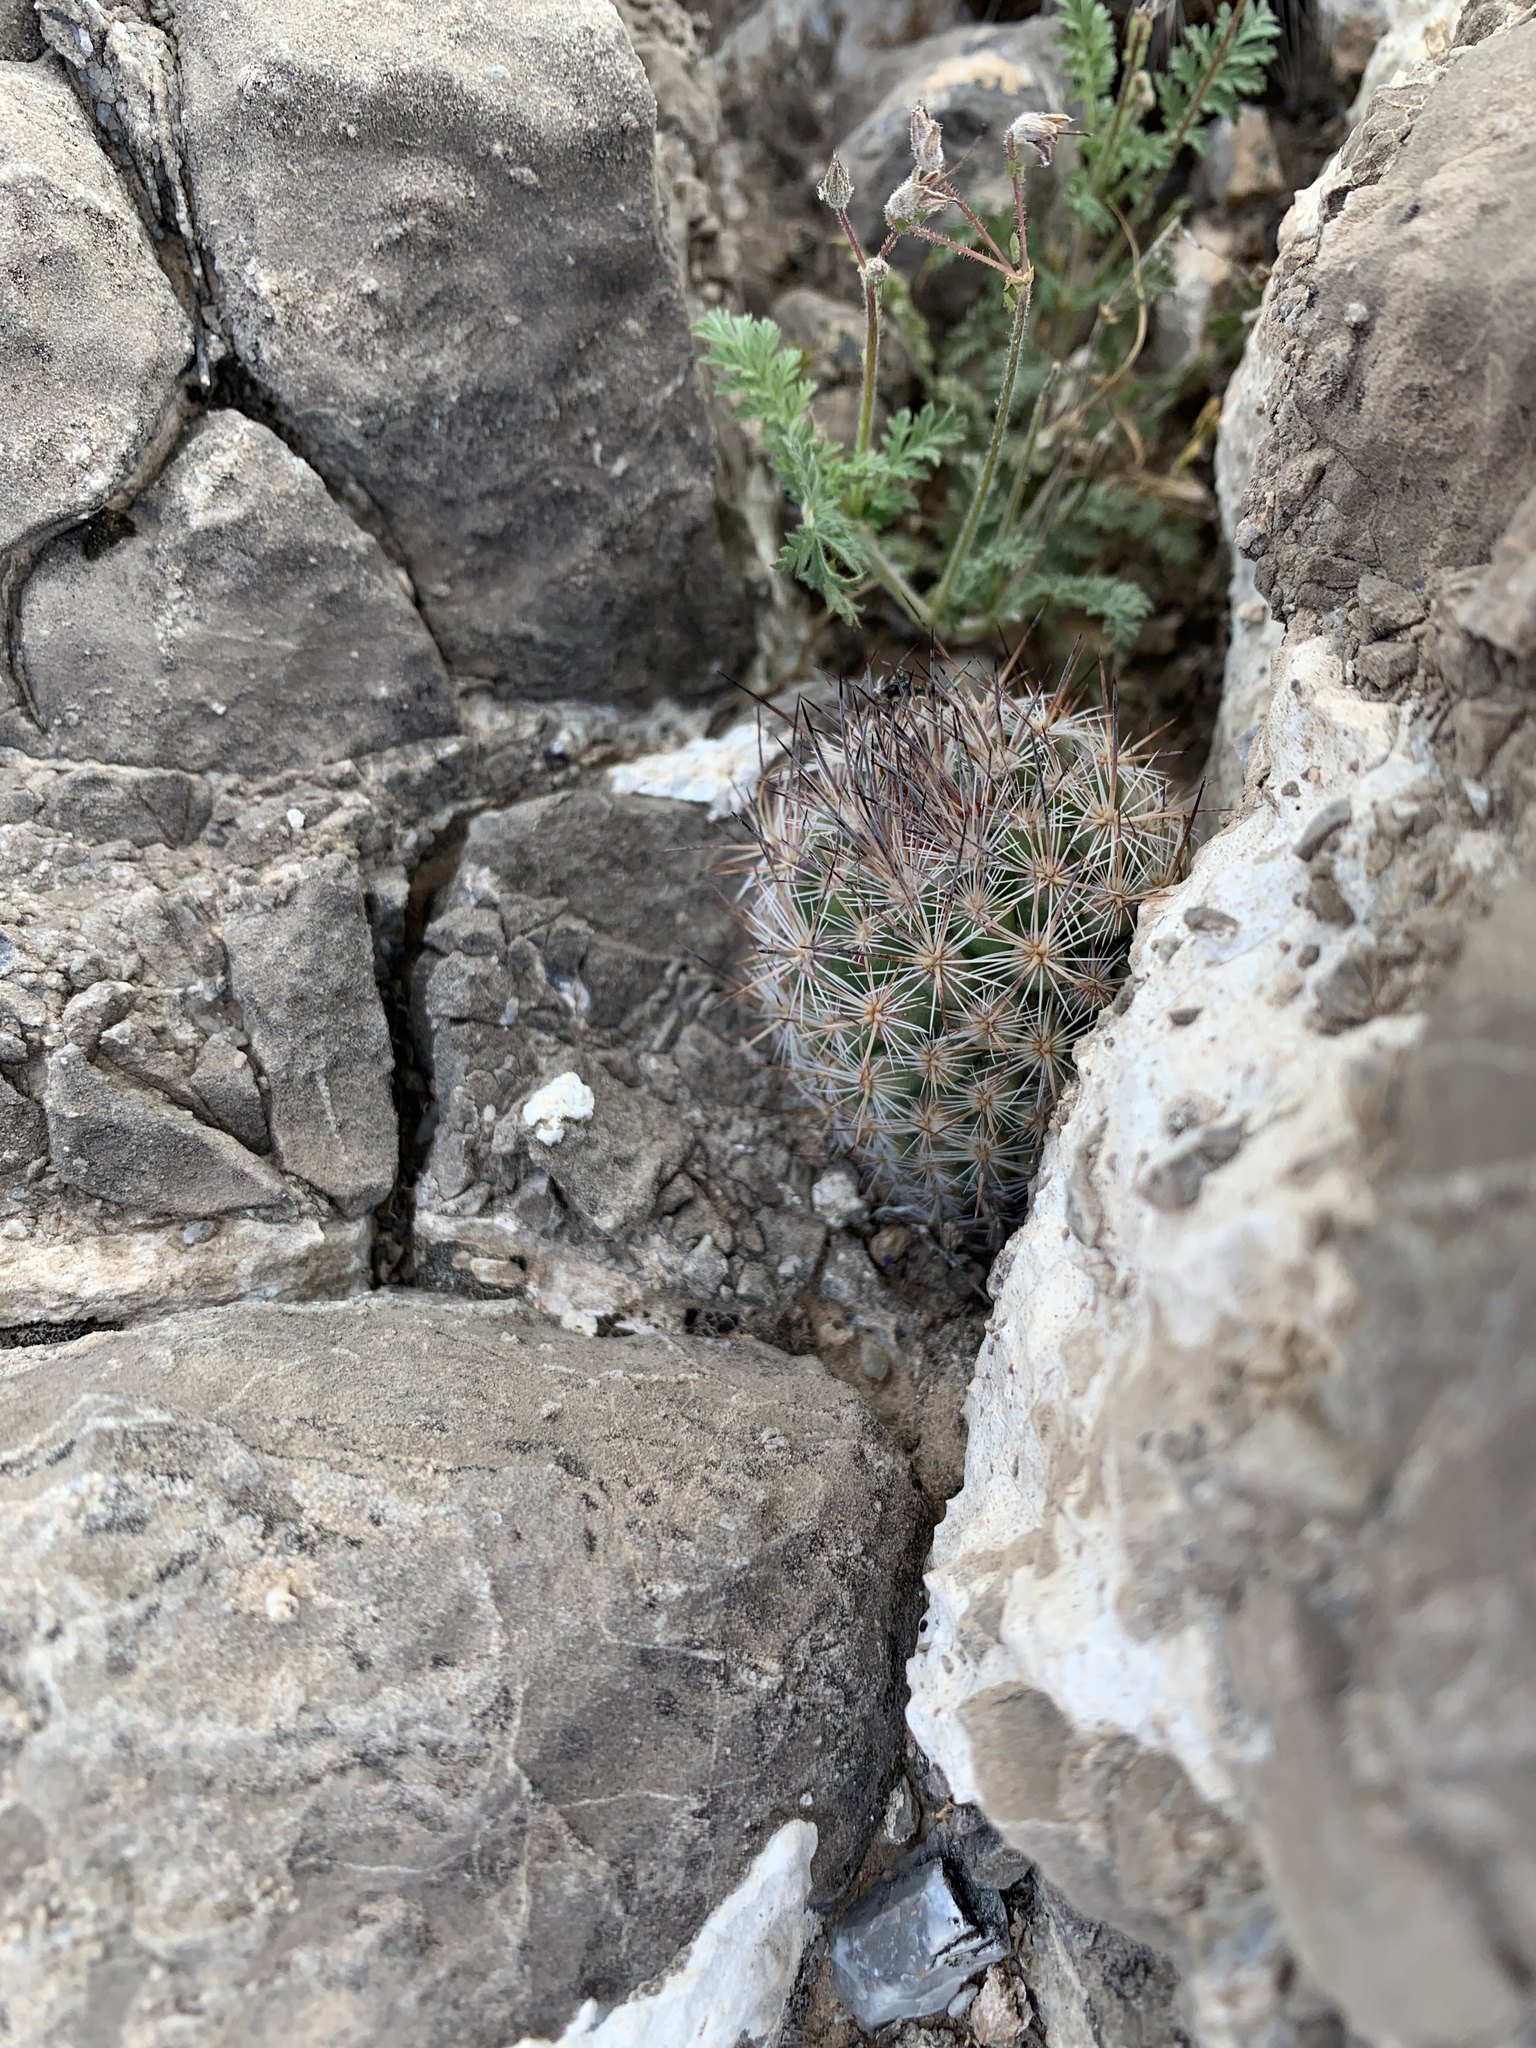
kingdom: Plantae
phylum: Tracheophyta
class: Magnoliopsida
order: Caryophyllales
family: Cactaceae
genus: Pelecyphora
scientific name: Pelecyphora tuberculosa
